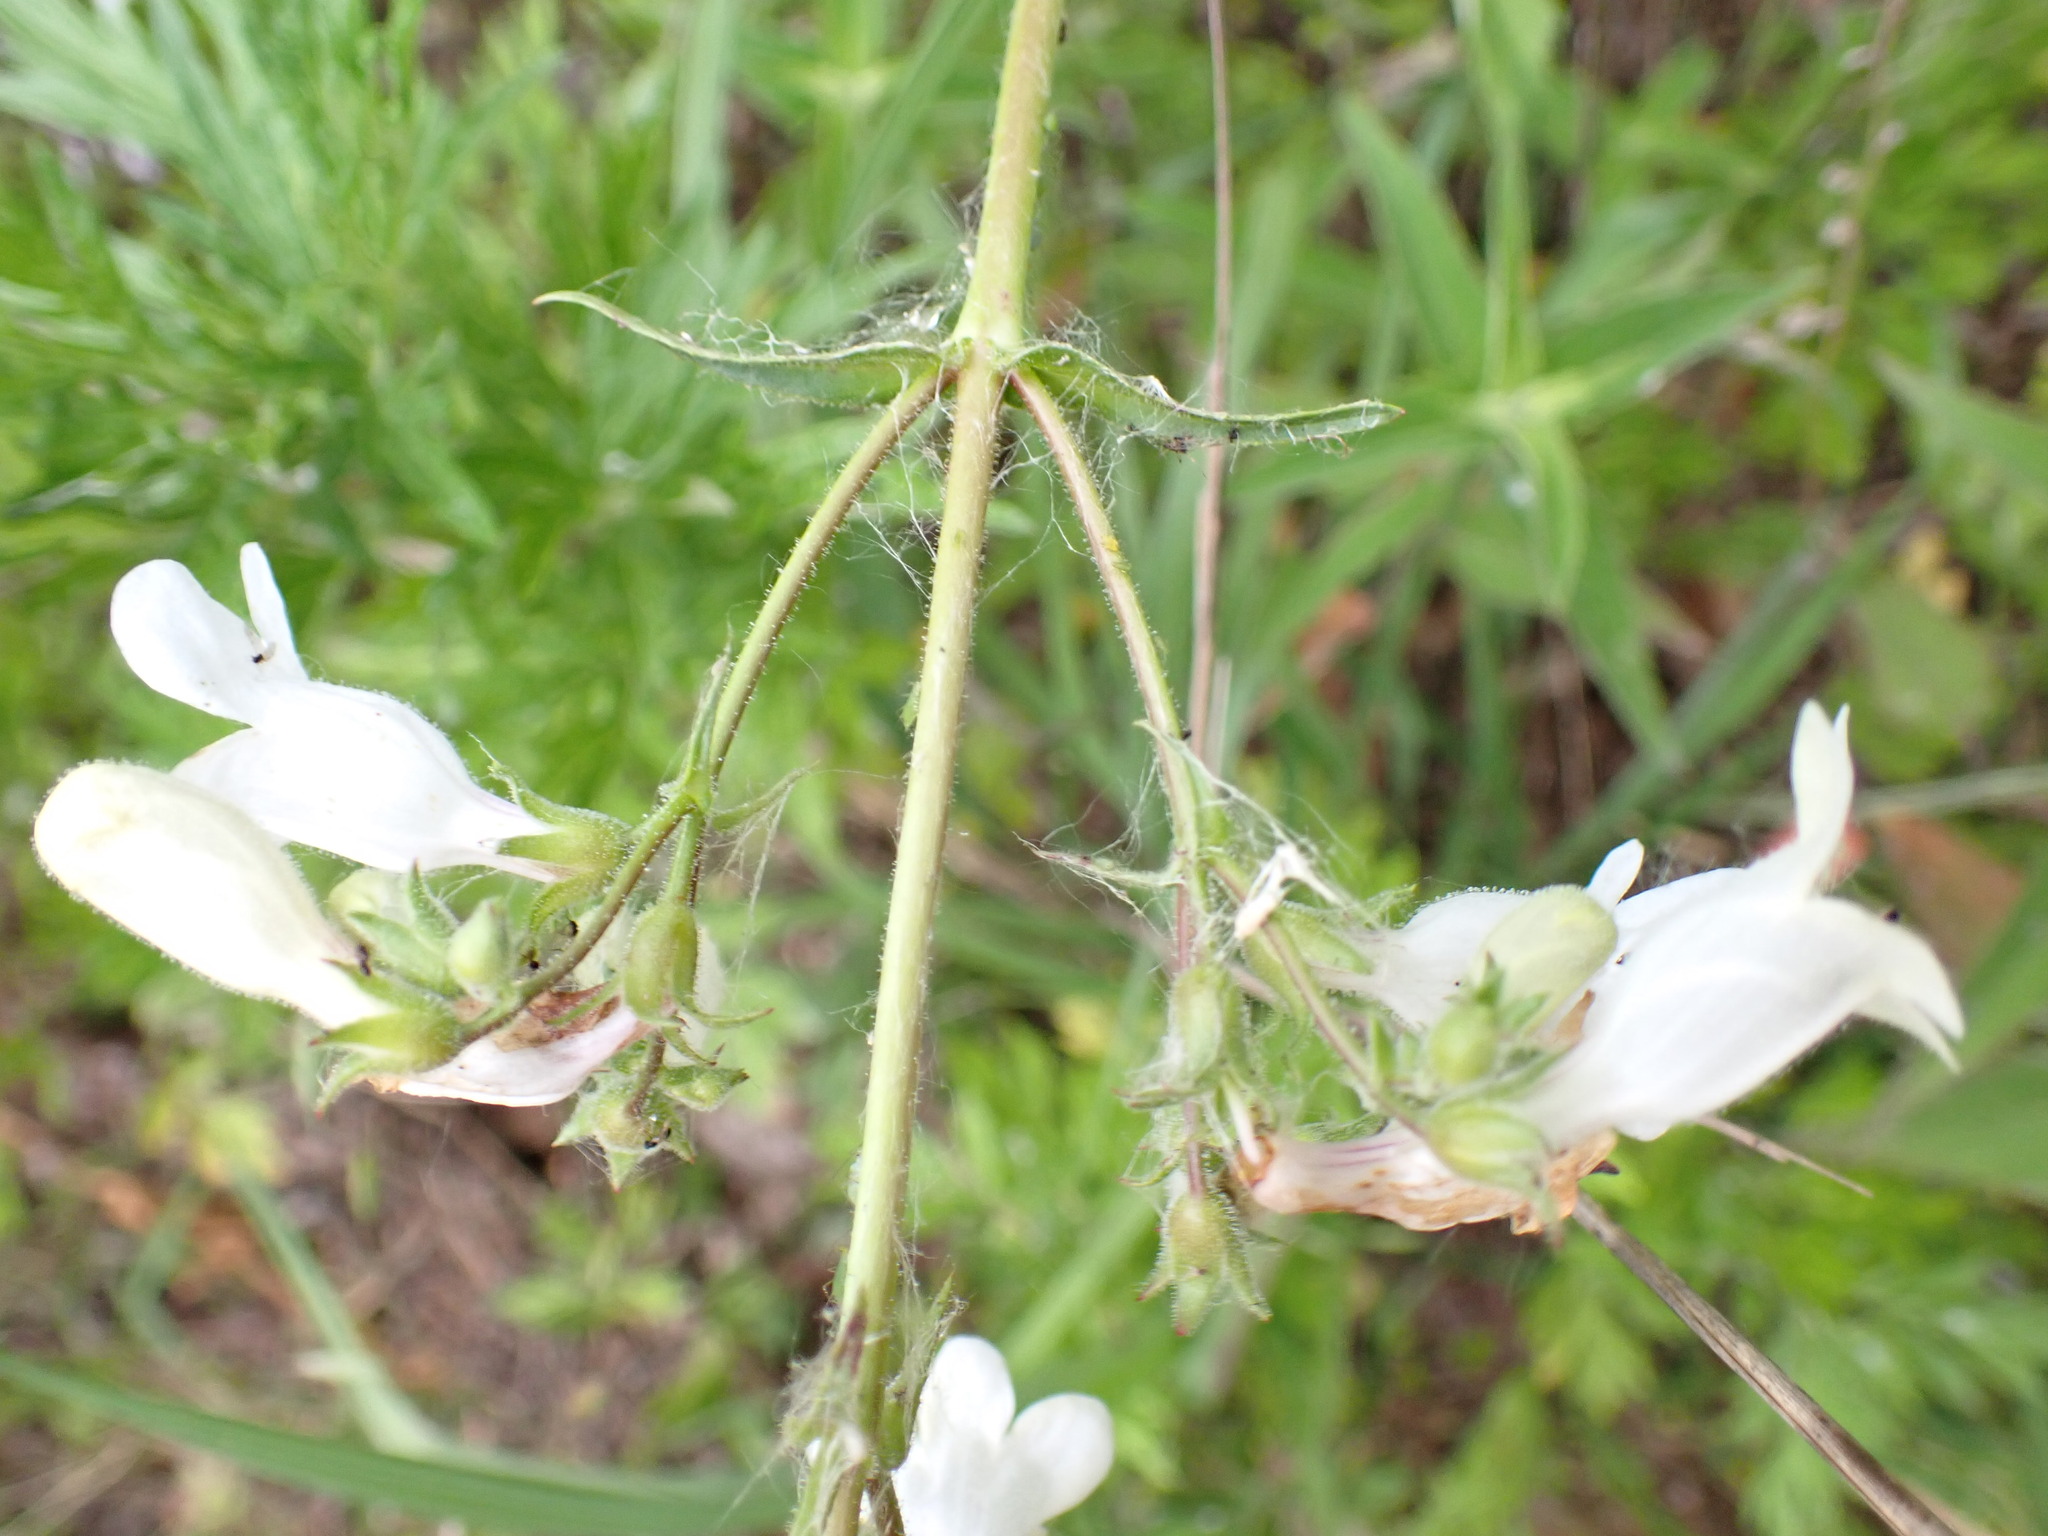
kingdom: Plantae
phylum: Tracheophyta
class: Magnoliopsida
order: Lamiales
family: Plantaginaceae
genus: Penstemon
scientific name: Penstemon digitalis
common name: Foxglove beardtongue
